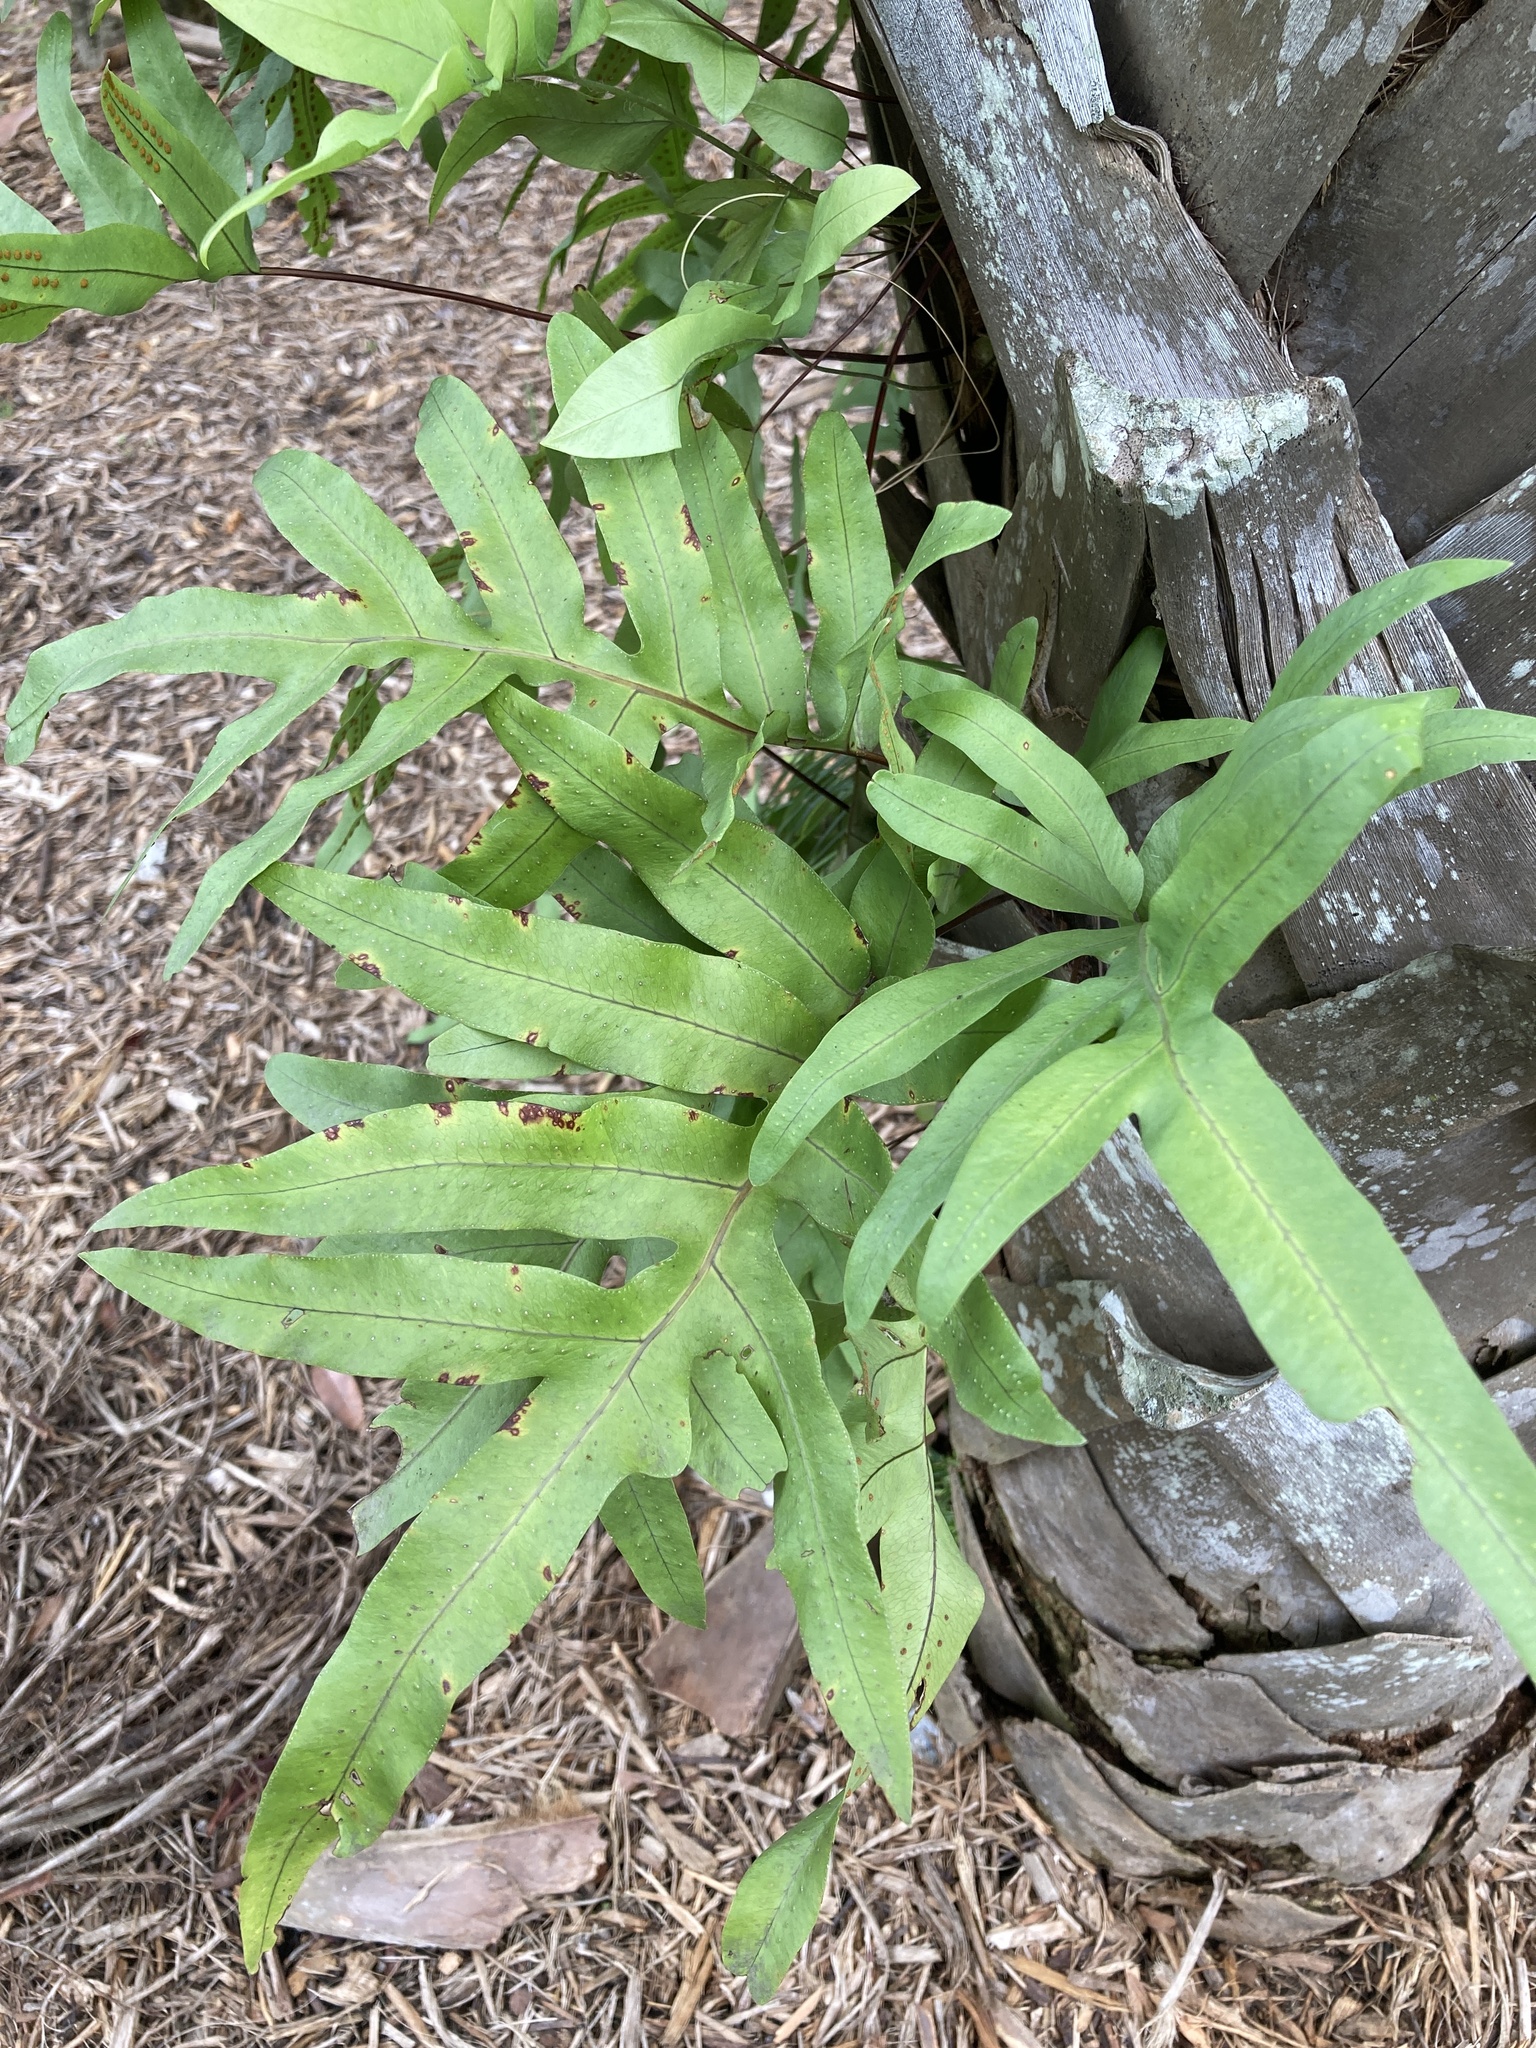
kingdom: Plantae
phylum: Tracheophyta
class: Polypodiopsida
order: Polypodiales
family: Polypodiaceae
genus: Phlebodium
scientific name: Phlebodium aureum
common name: Gold-foot fern
